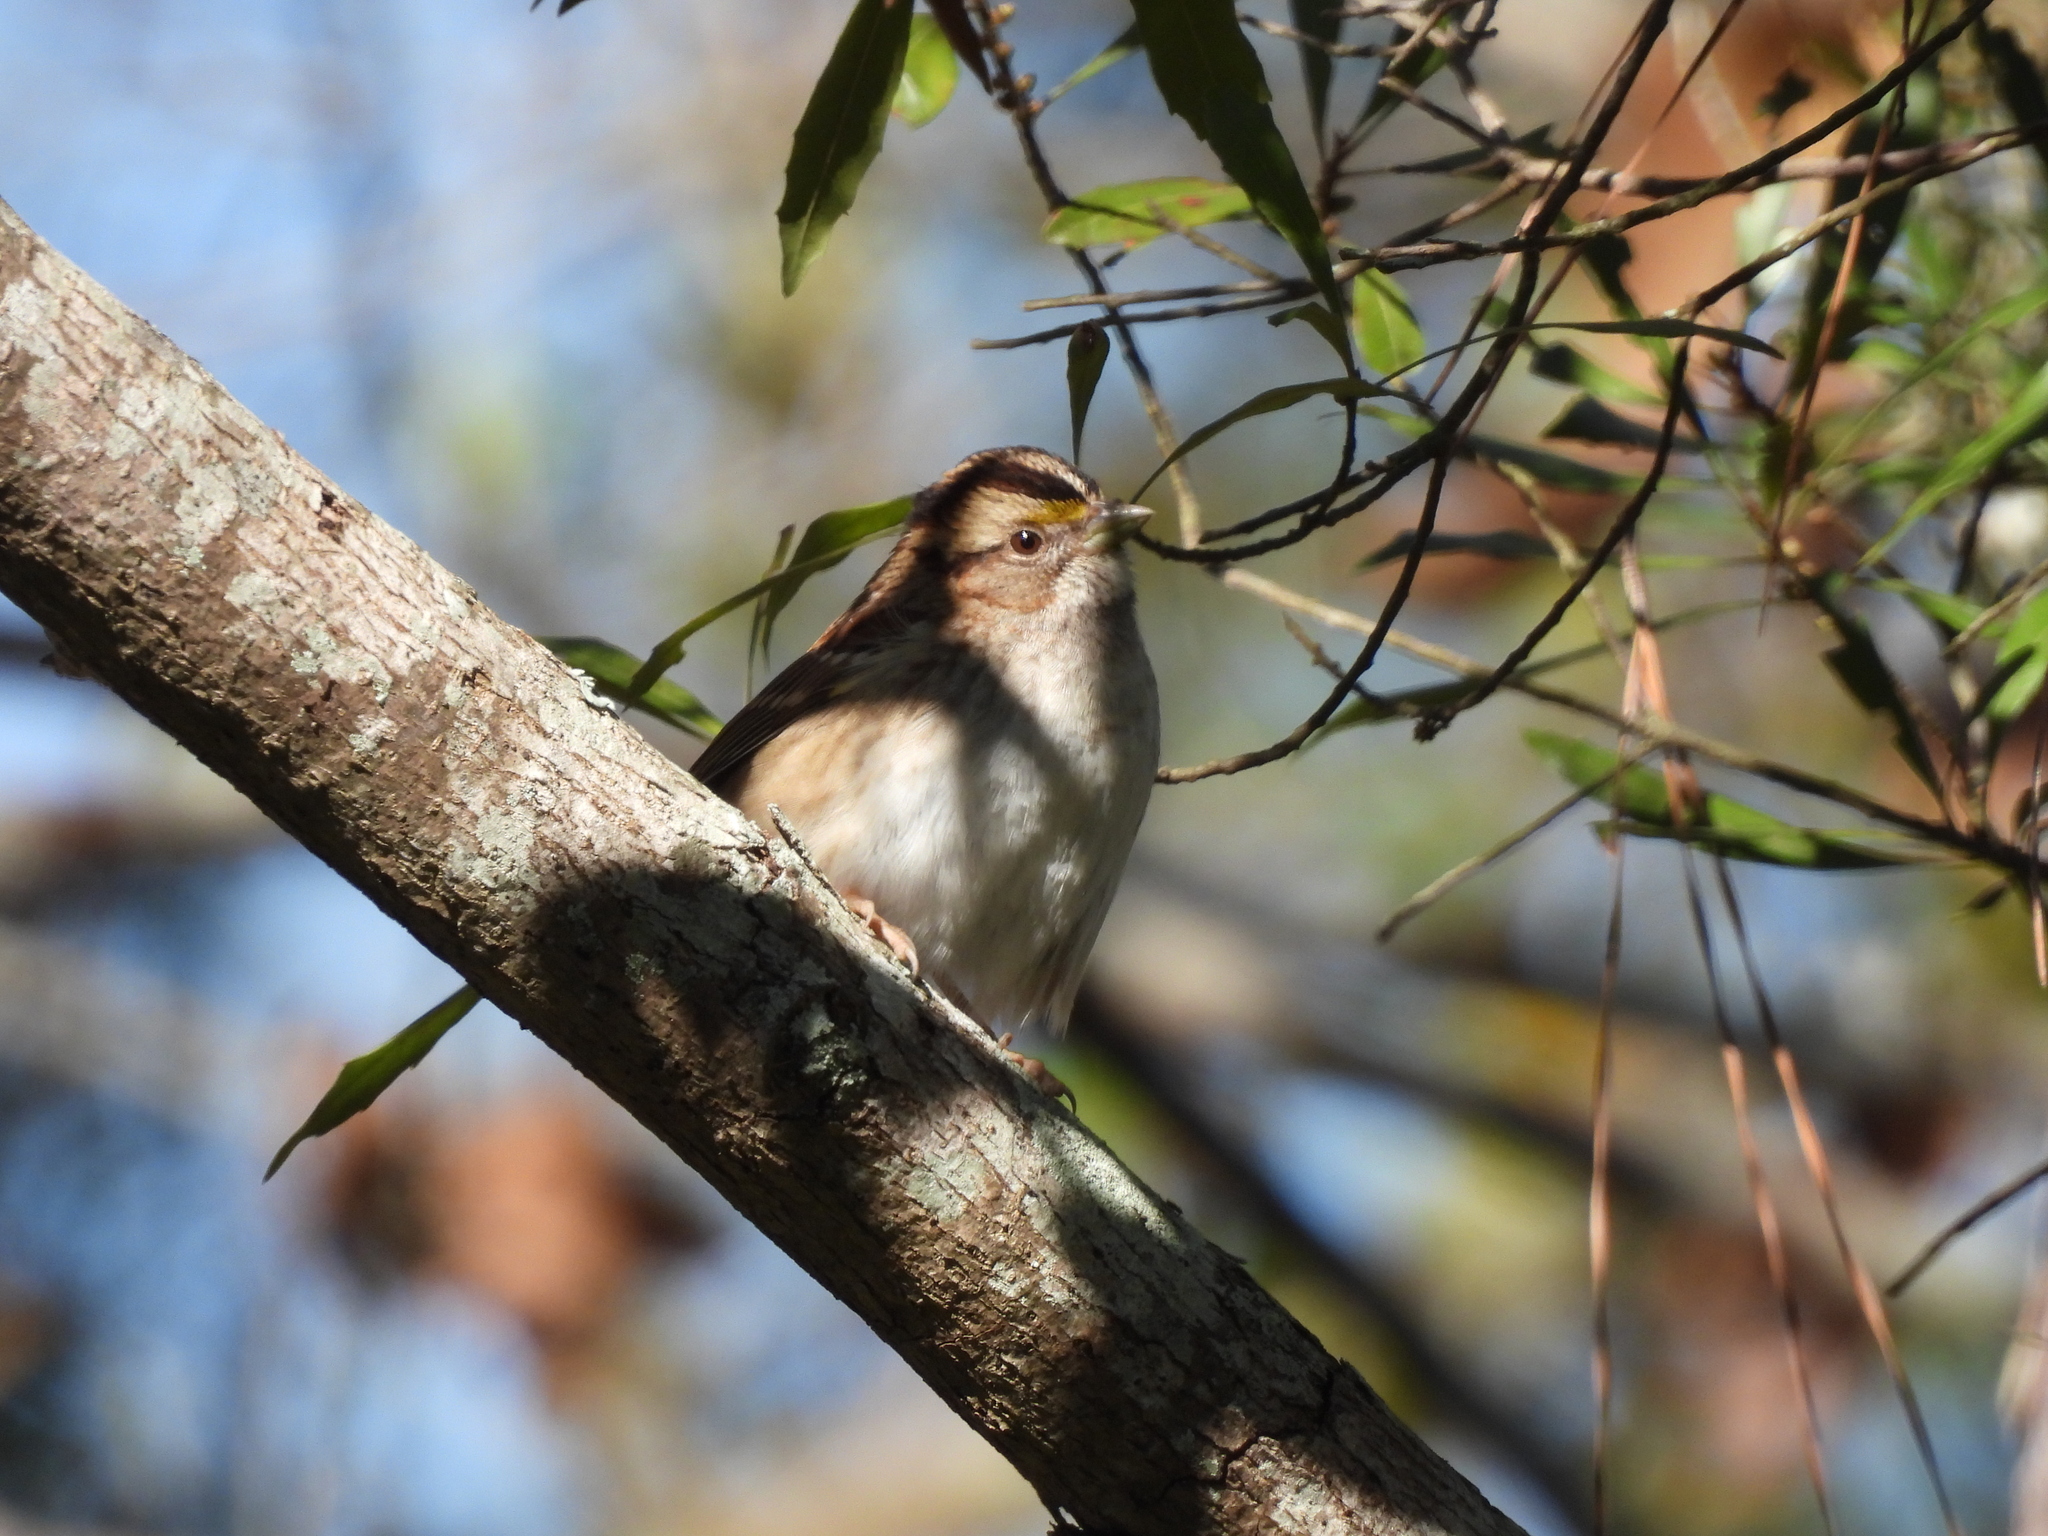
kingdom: Animalia
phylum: Chordata
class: Aves
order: Passeriformes
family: Passerellidae
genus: Zonotrichia
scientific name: Zonotrichia albicollis
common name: White-throated sparrow
